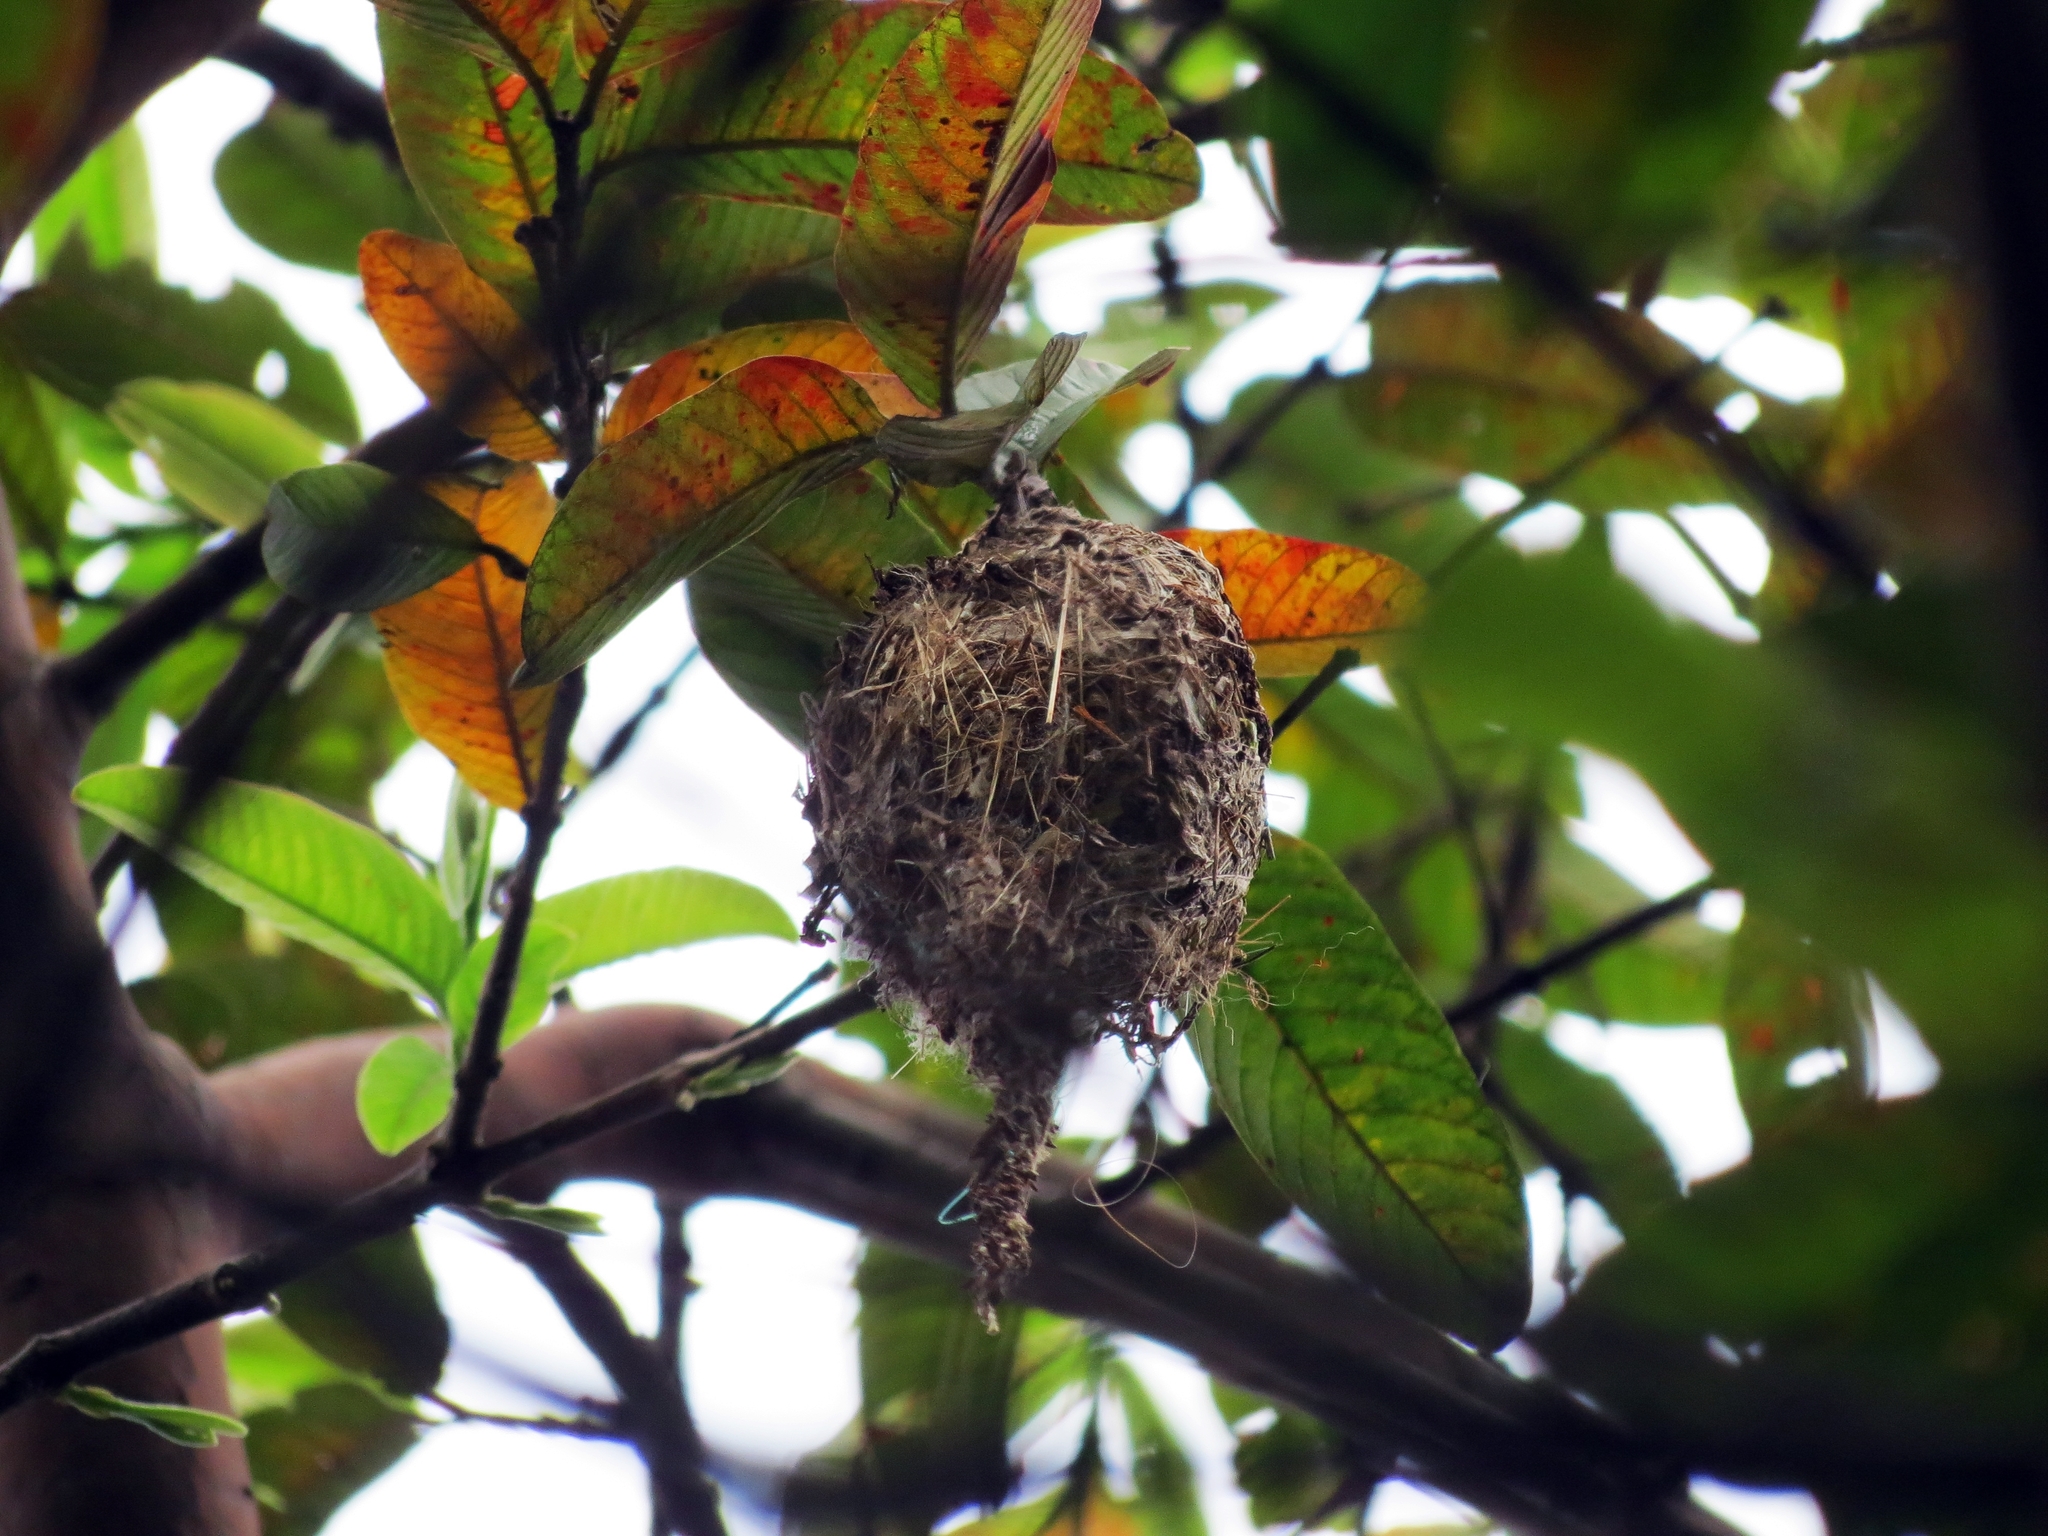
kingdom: Animalia
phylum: Chordata
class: Aves
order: Passeriformes
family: Tyrannidae
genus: Todirostrum
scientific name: Todirostrum cinereum
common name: Common tody-flycatcher
